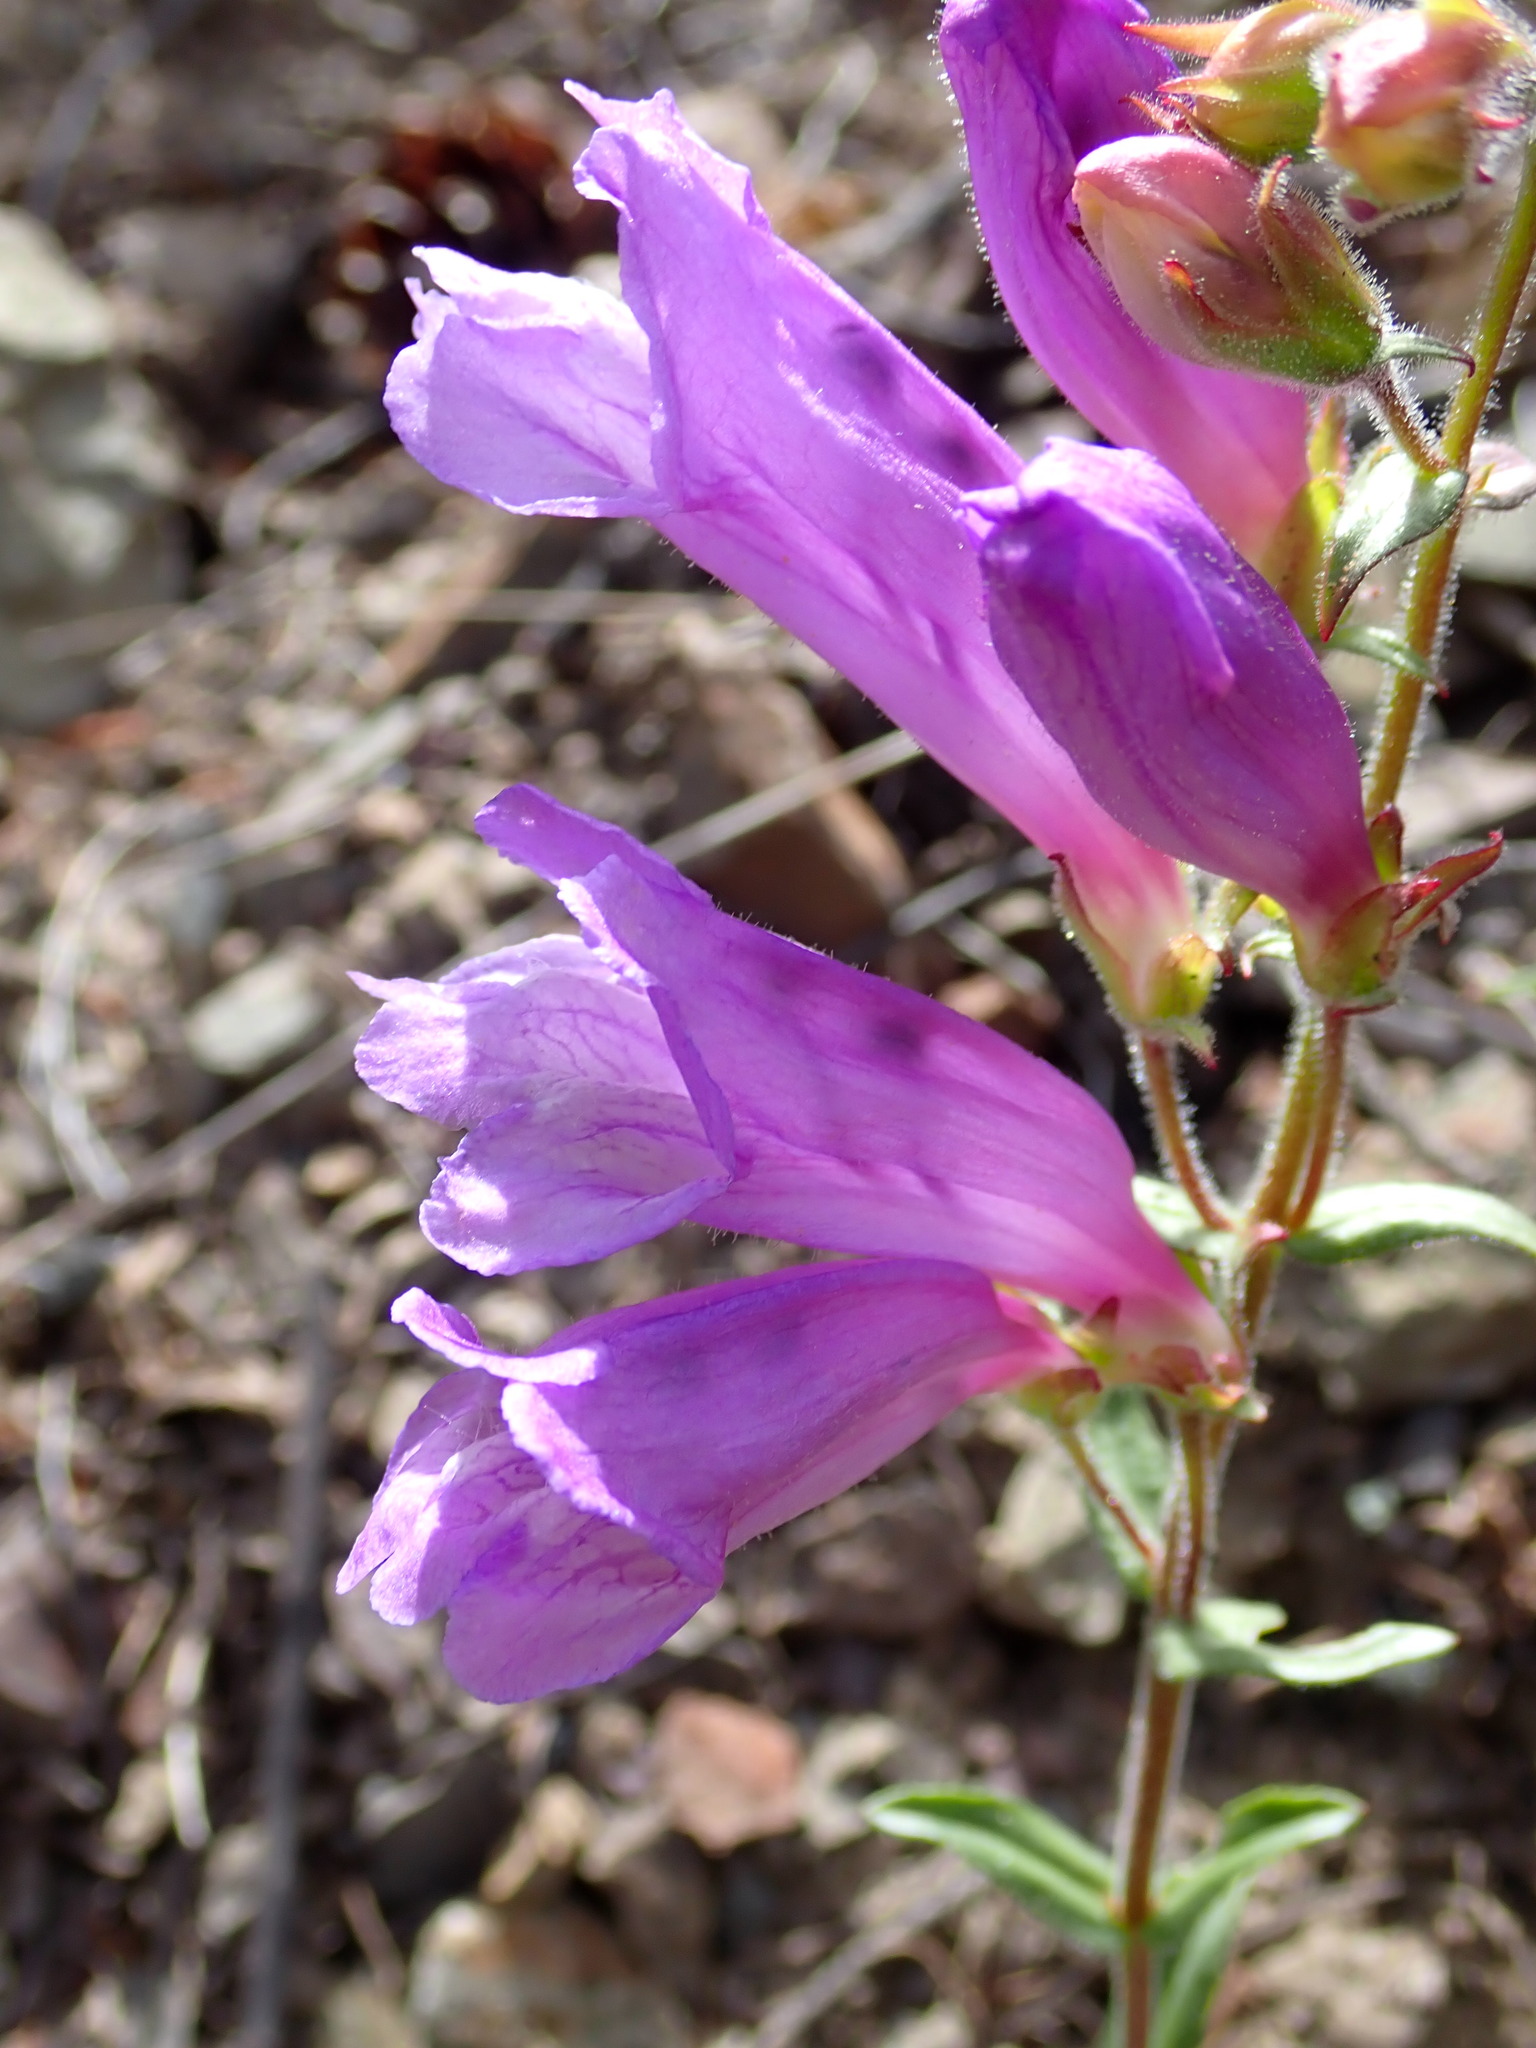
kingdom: Plantae
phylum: Tracheophyta
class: Magnoliopsida
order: Lamiales
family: Plantaginaceae
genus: Penstemon
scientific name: Penstemon fruticosus
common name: Bush penstemon
